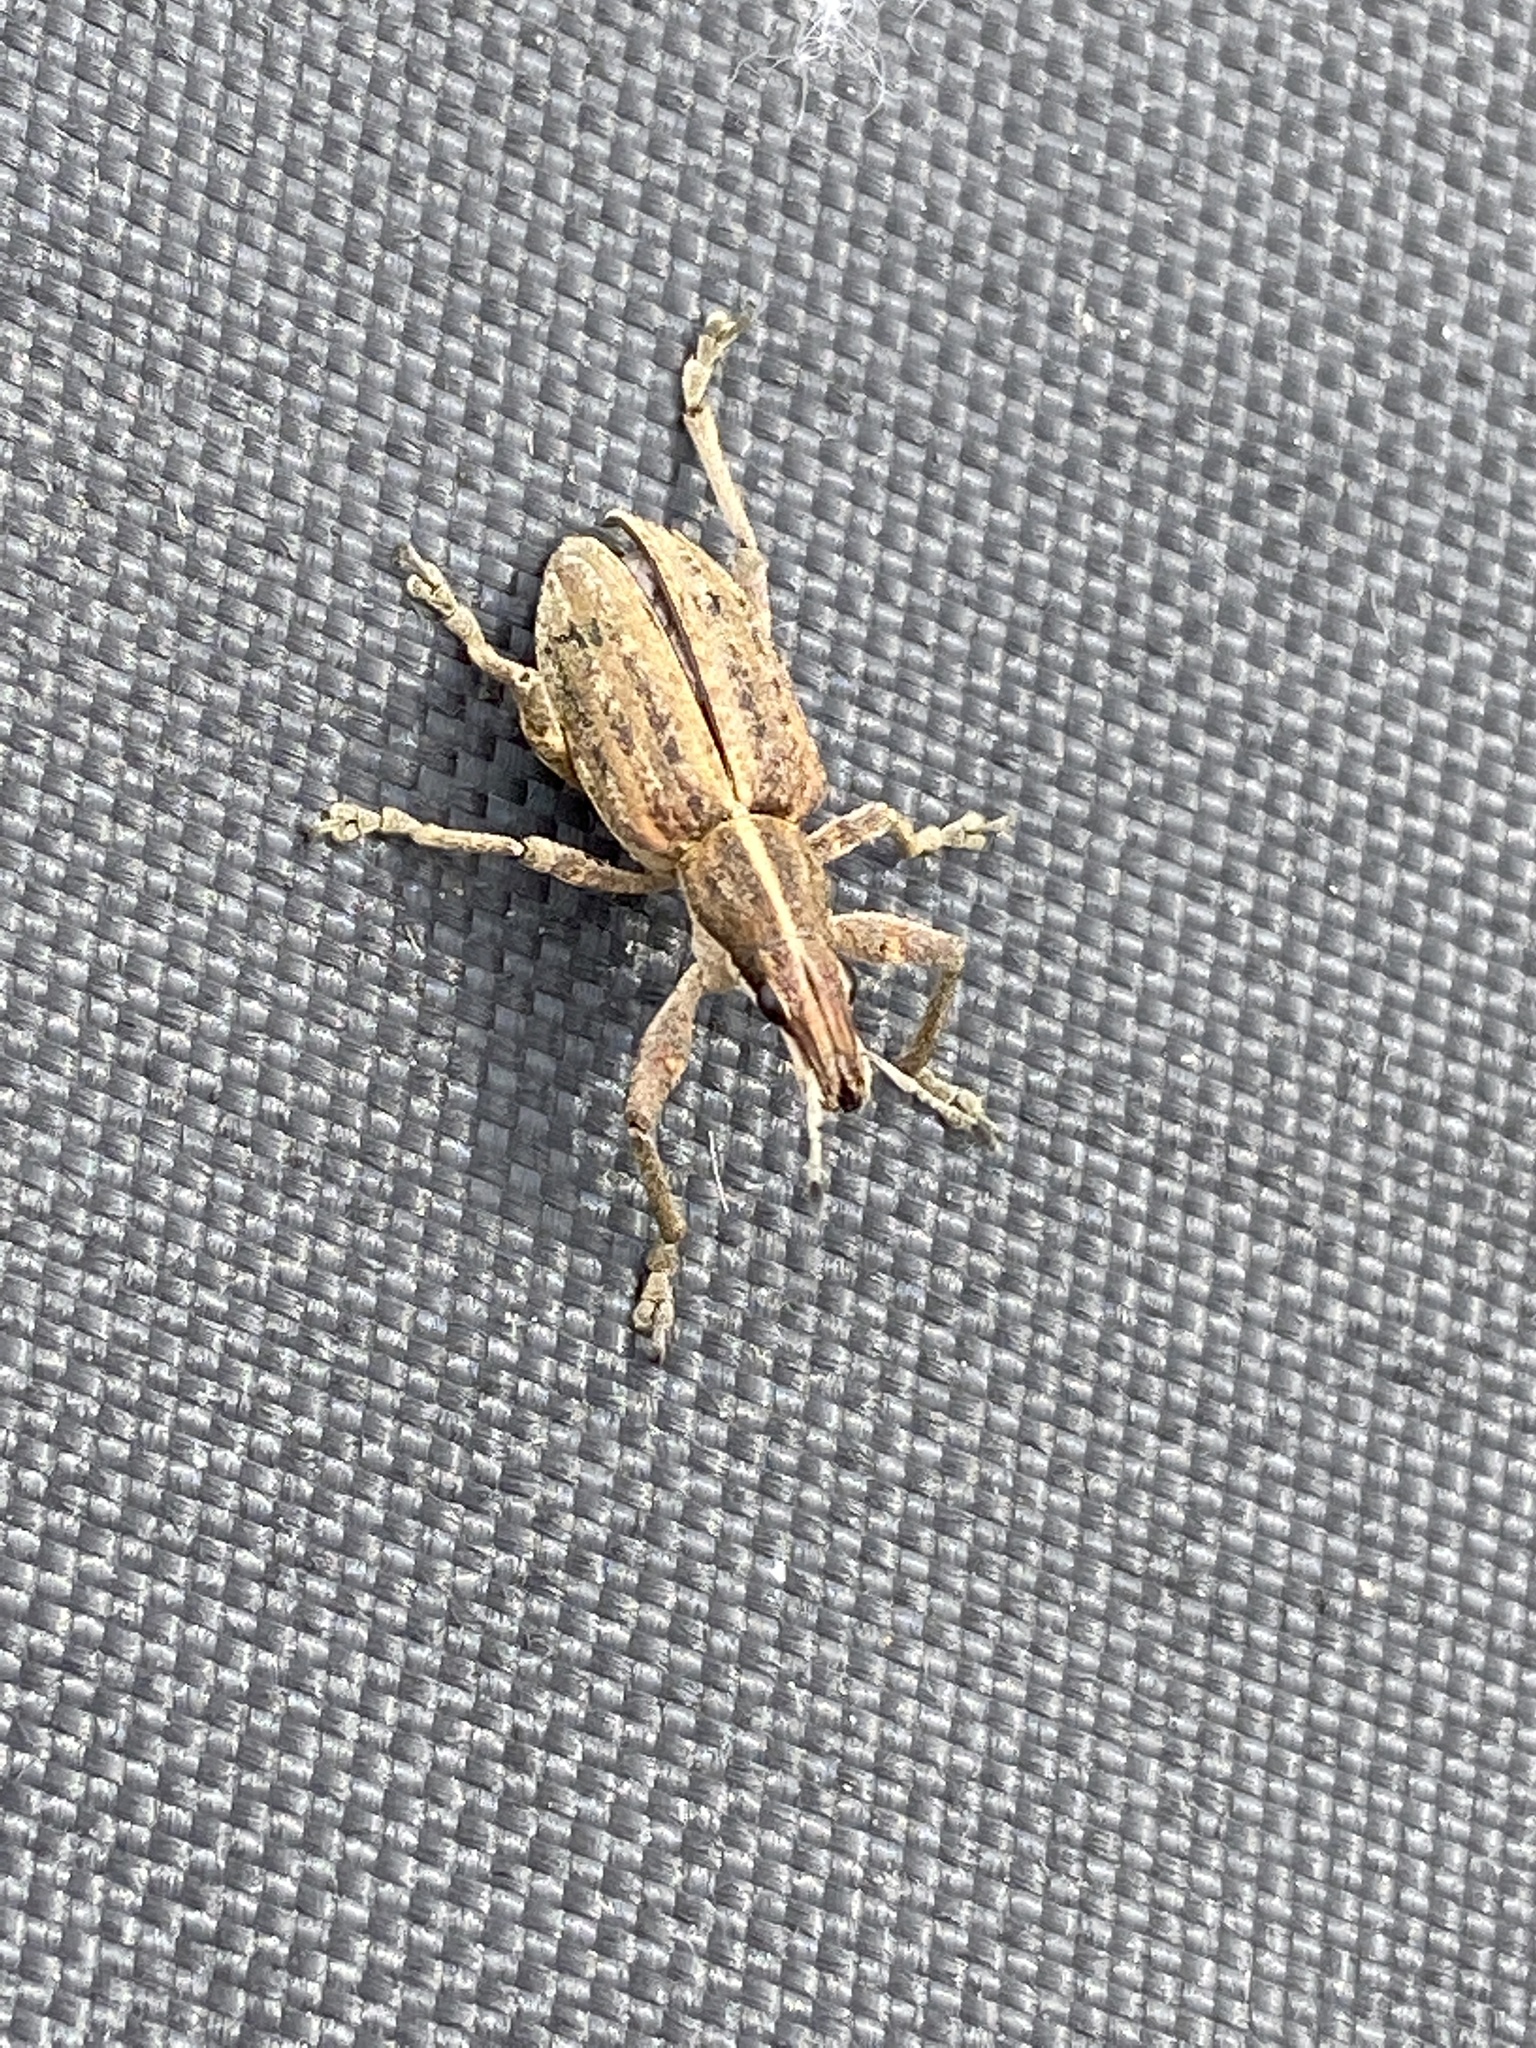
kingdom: Animalia
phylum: Arthropoda
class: Insecta
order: Coleoptera
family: Curculionidae
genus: Charagmus
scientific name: Charagmus gressorius
